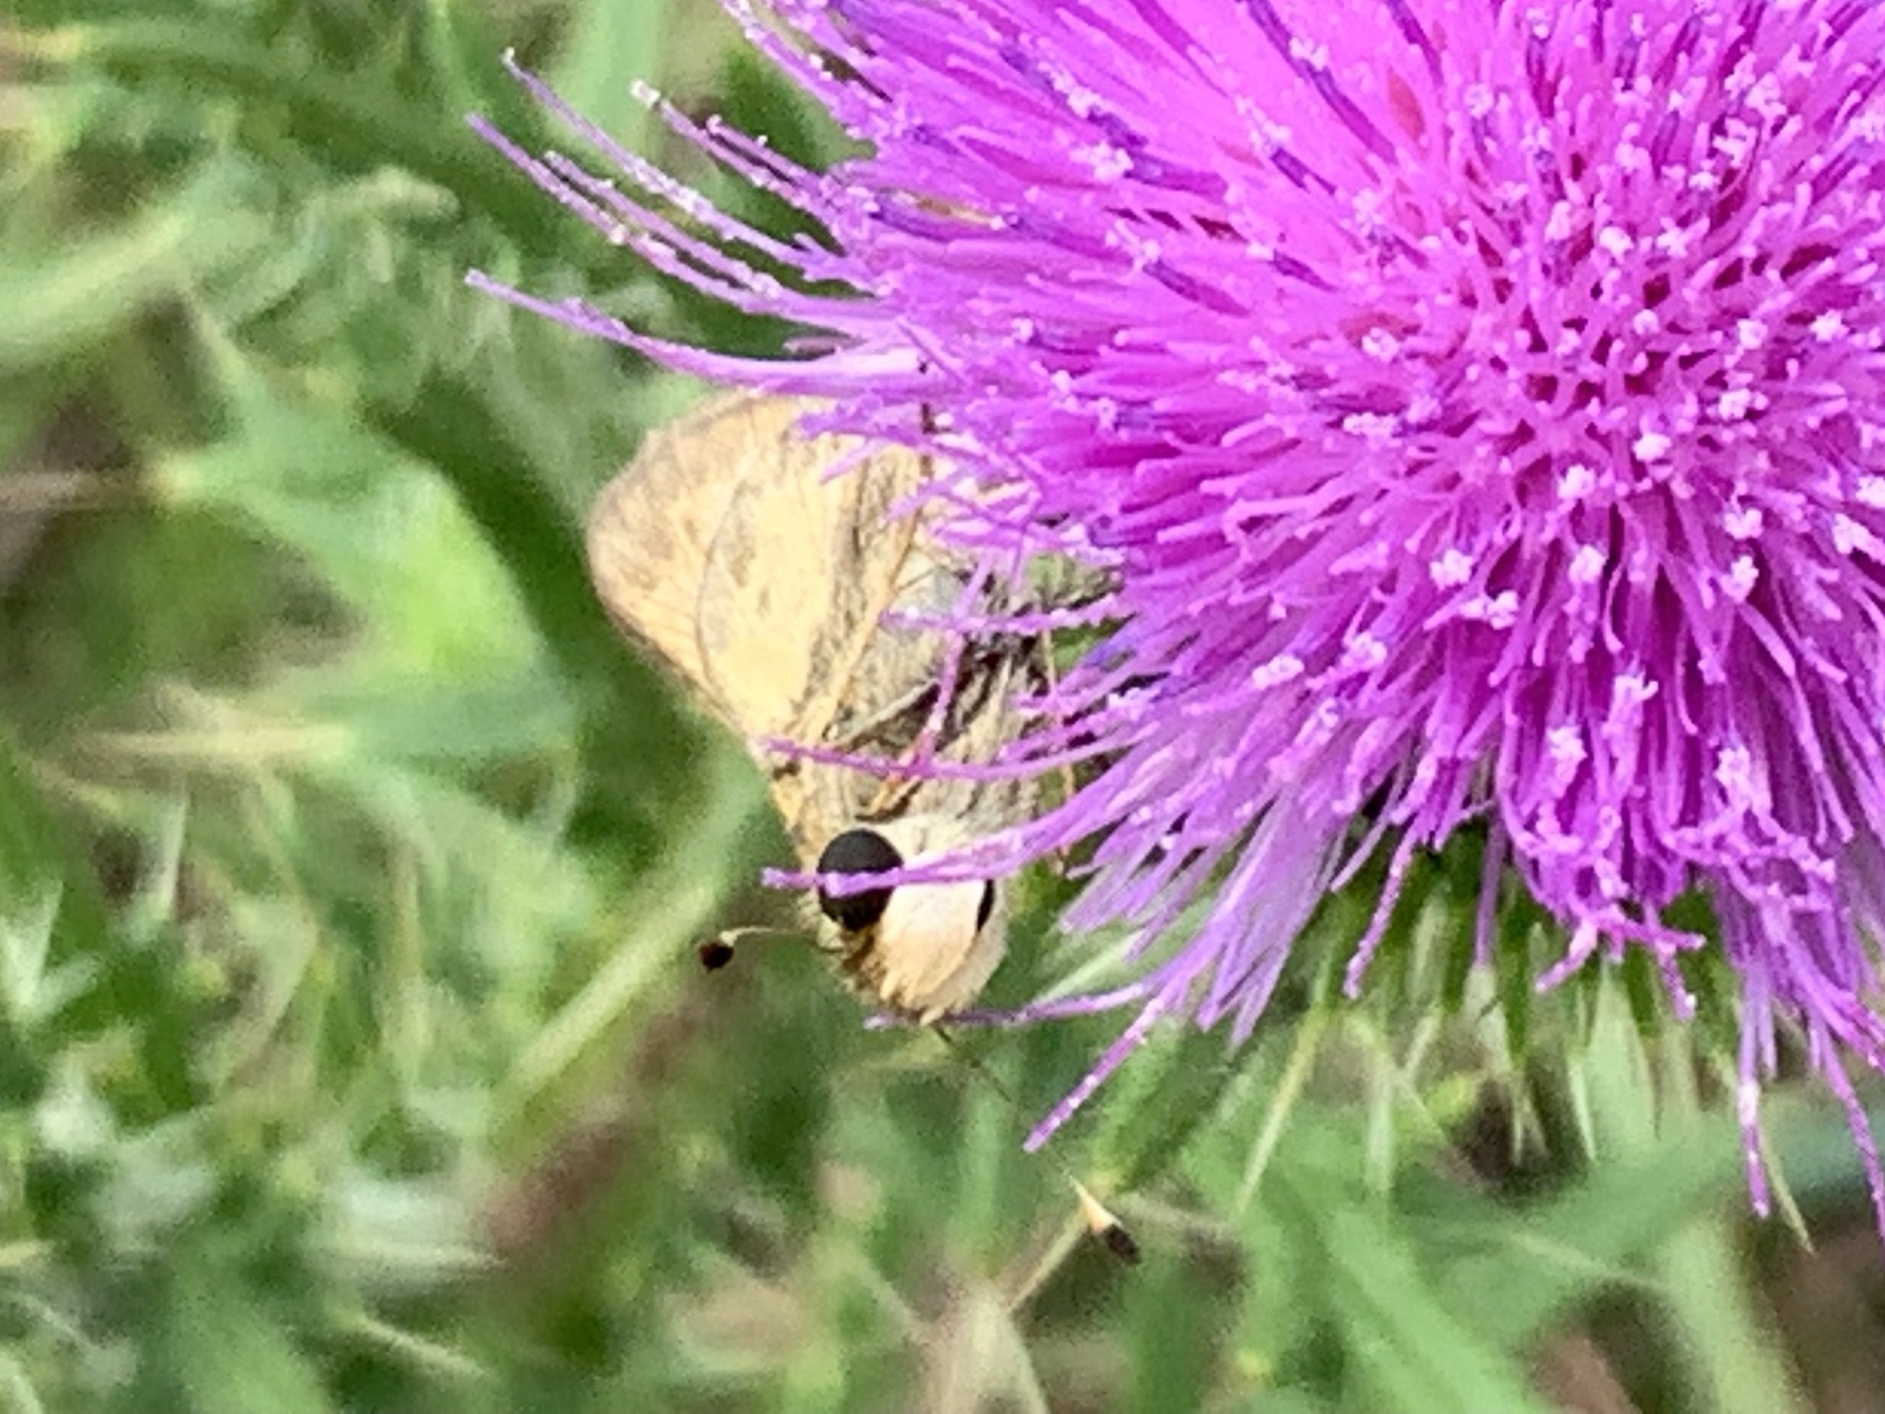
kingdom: Animalia
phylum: Arthropoda
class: Insecta
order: Lepidoptera
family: Hesperiidae
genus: Atalopedes
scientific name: Atalopedes
